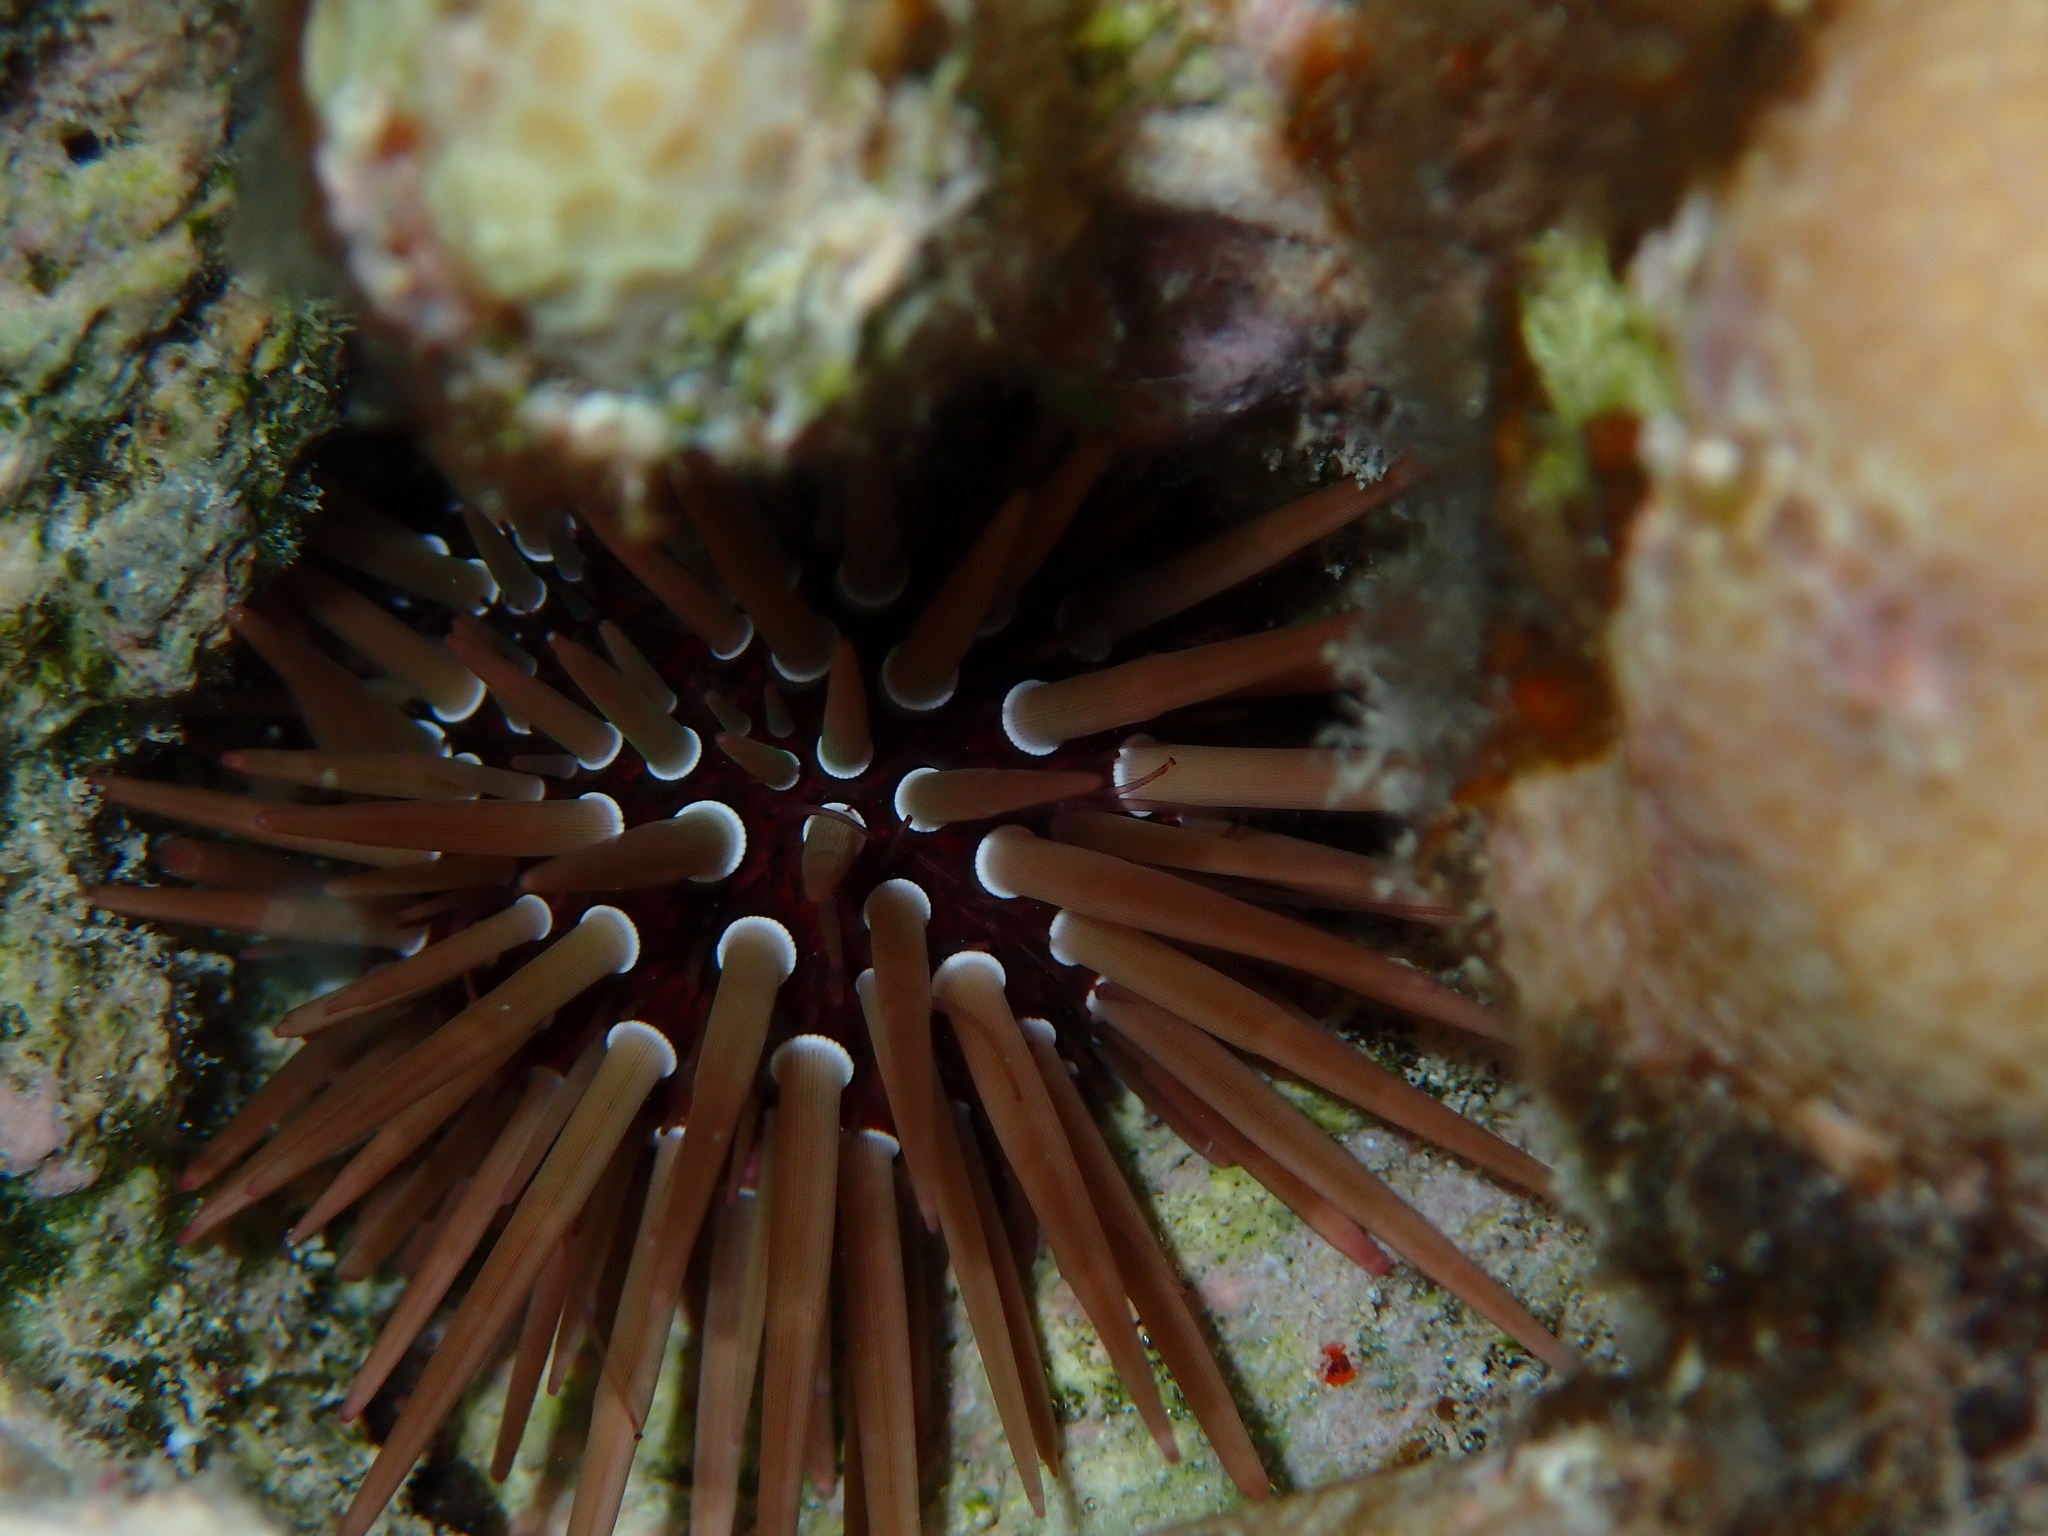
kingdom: Animalia
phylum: Echinodermata
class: Echinoidea
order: Camarodonta
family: Echinometridae
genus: Echinometra
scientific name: Echinometra mathaei
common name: Rock-boring urchin
